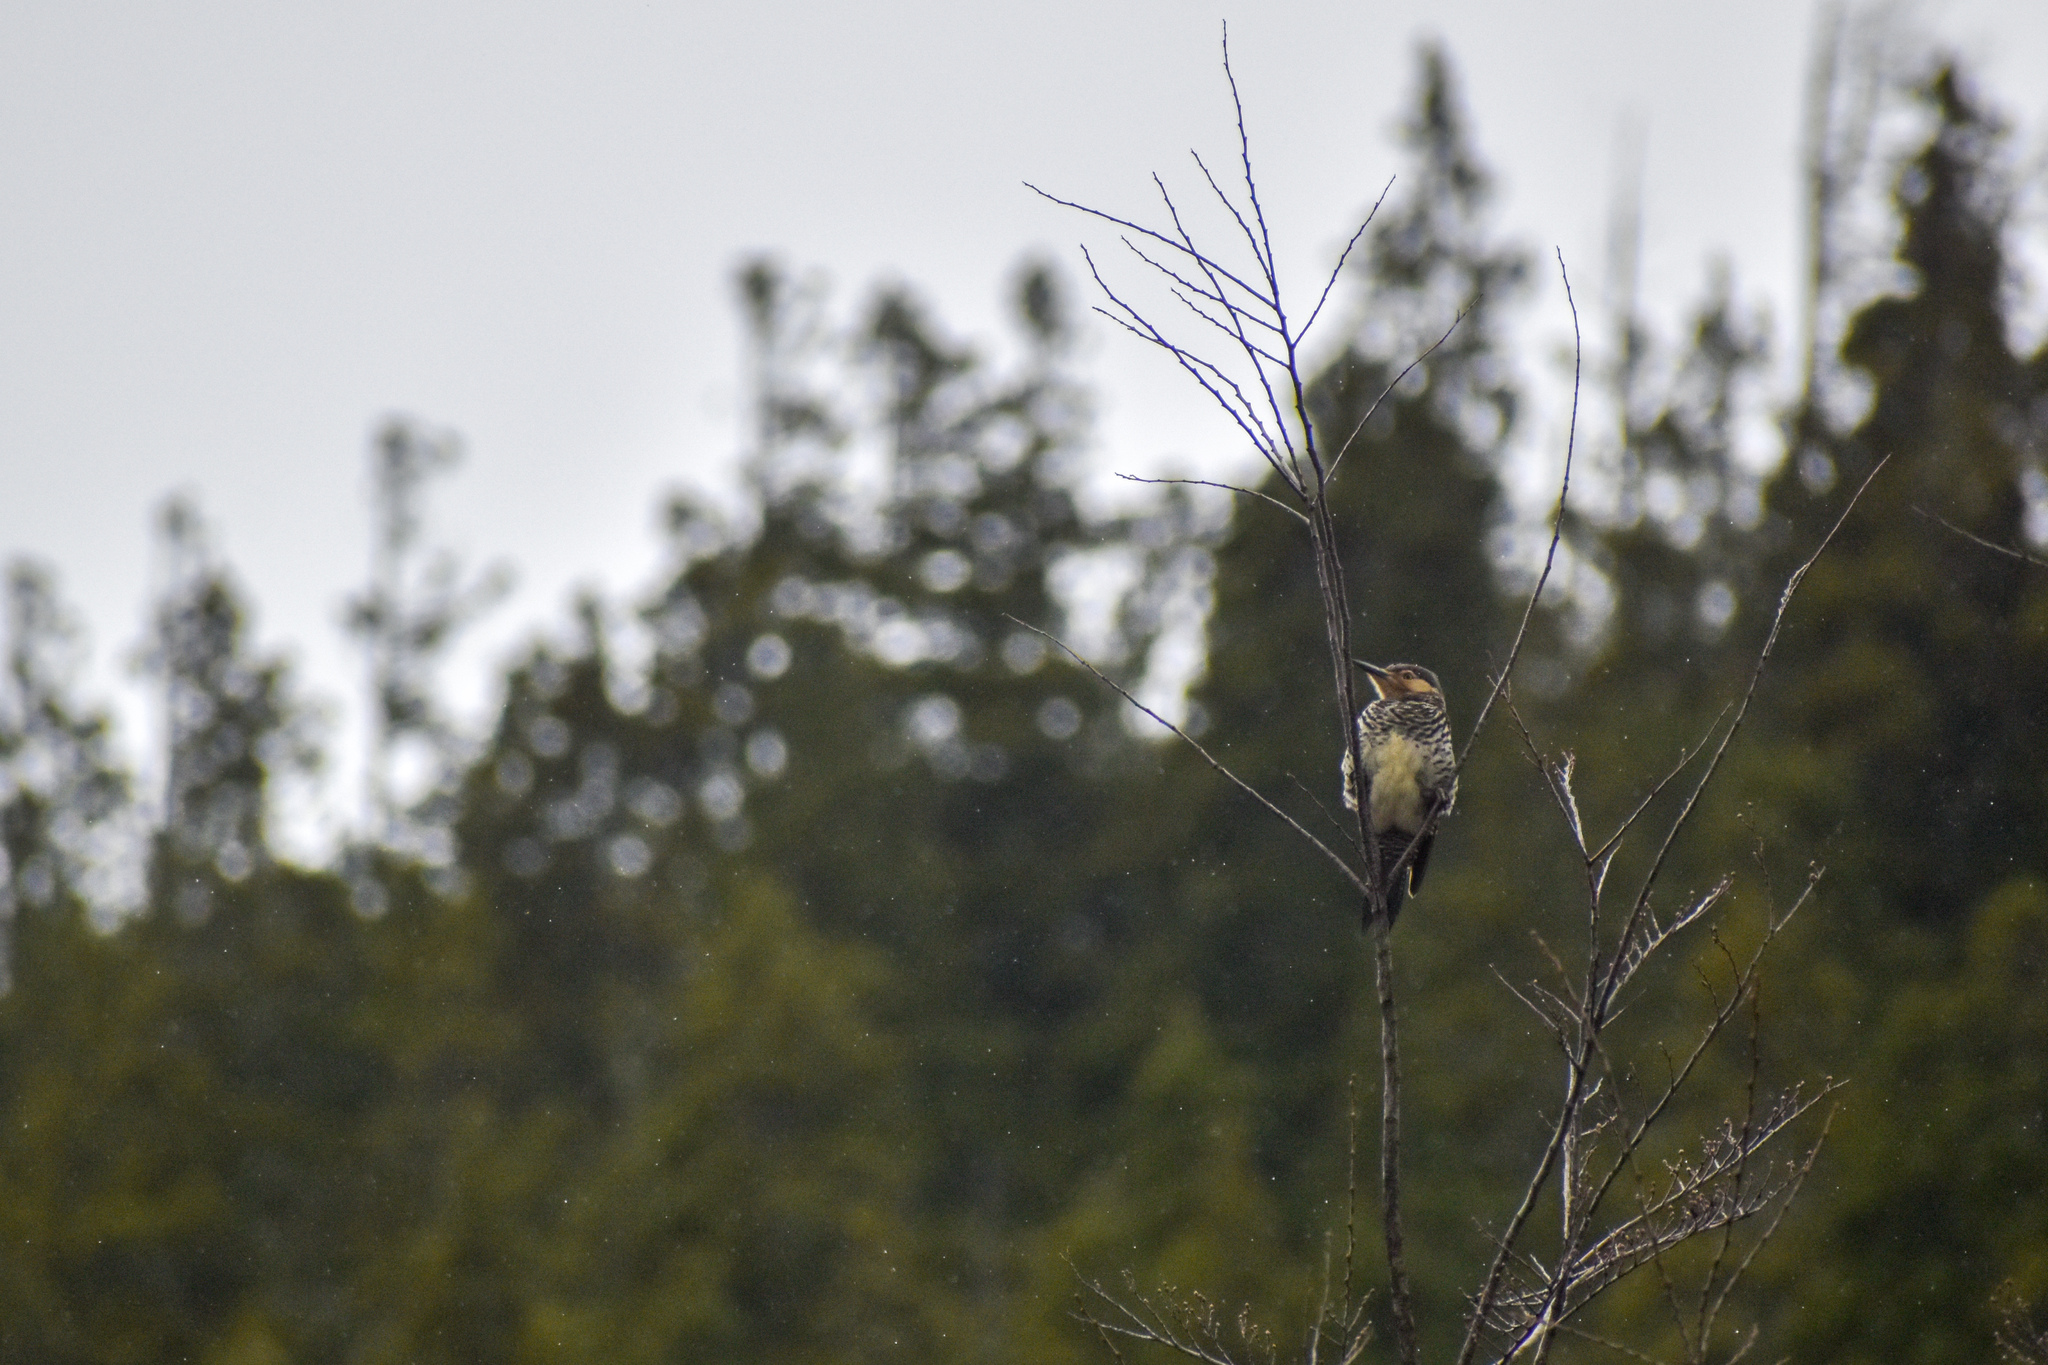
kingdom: Animalia
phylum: Chordata
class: Aves
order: Piciformes
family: Picidae
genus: Colaptes
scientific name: Colaptes pitius
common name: Chilean flicker
